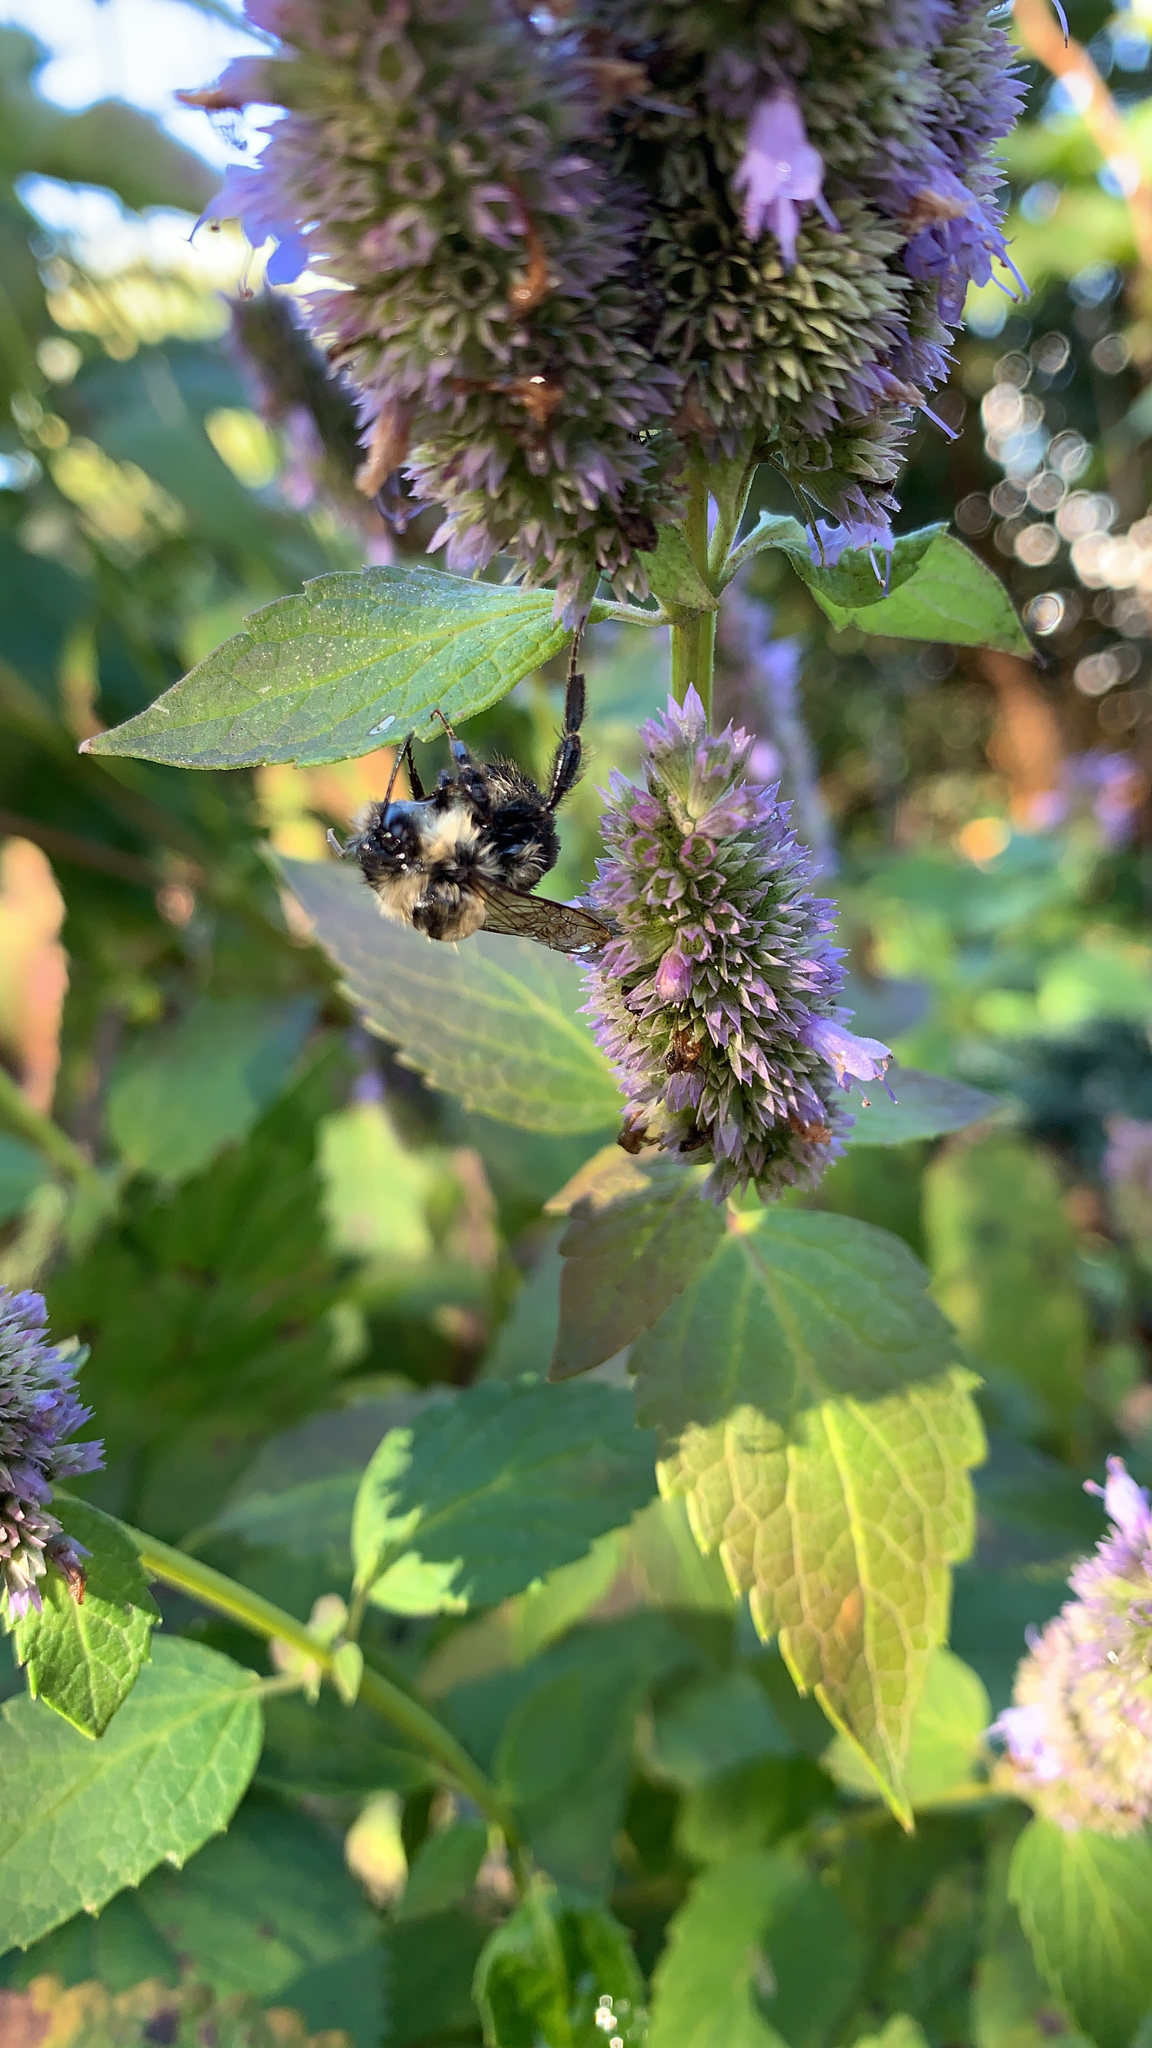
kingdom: Animalia
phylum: Arthropoda
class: Insecta
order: Hymenoptera
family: Apidae
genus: Bombus
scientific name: Bombus impatiens
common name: Common eastern bumble bee
